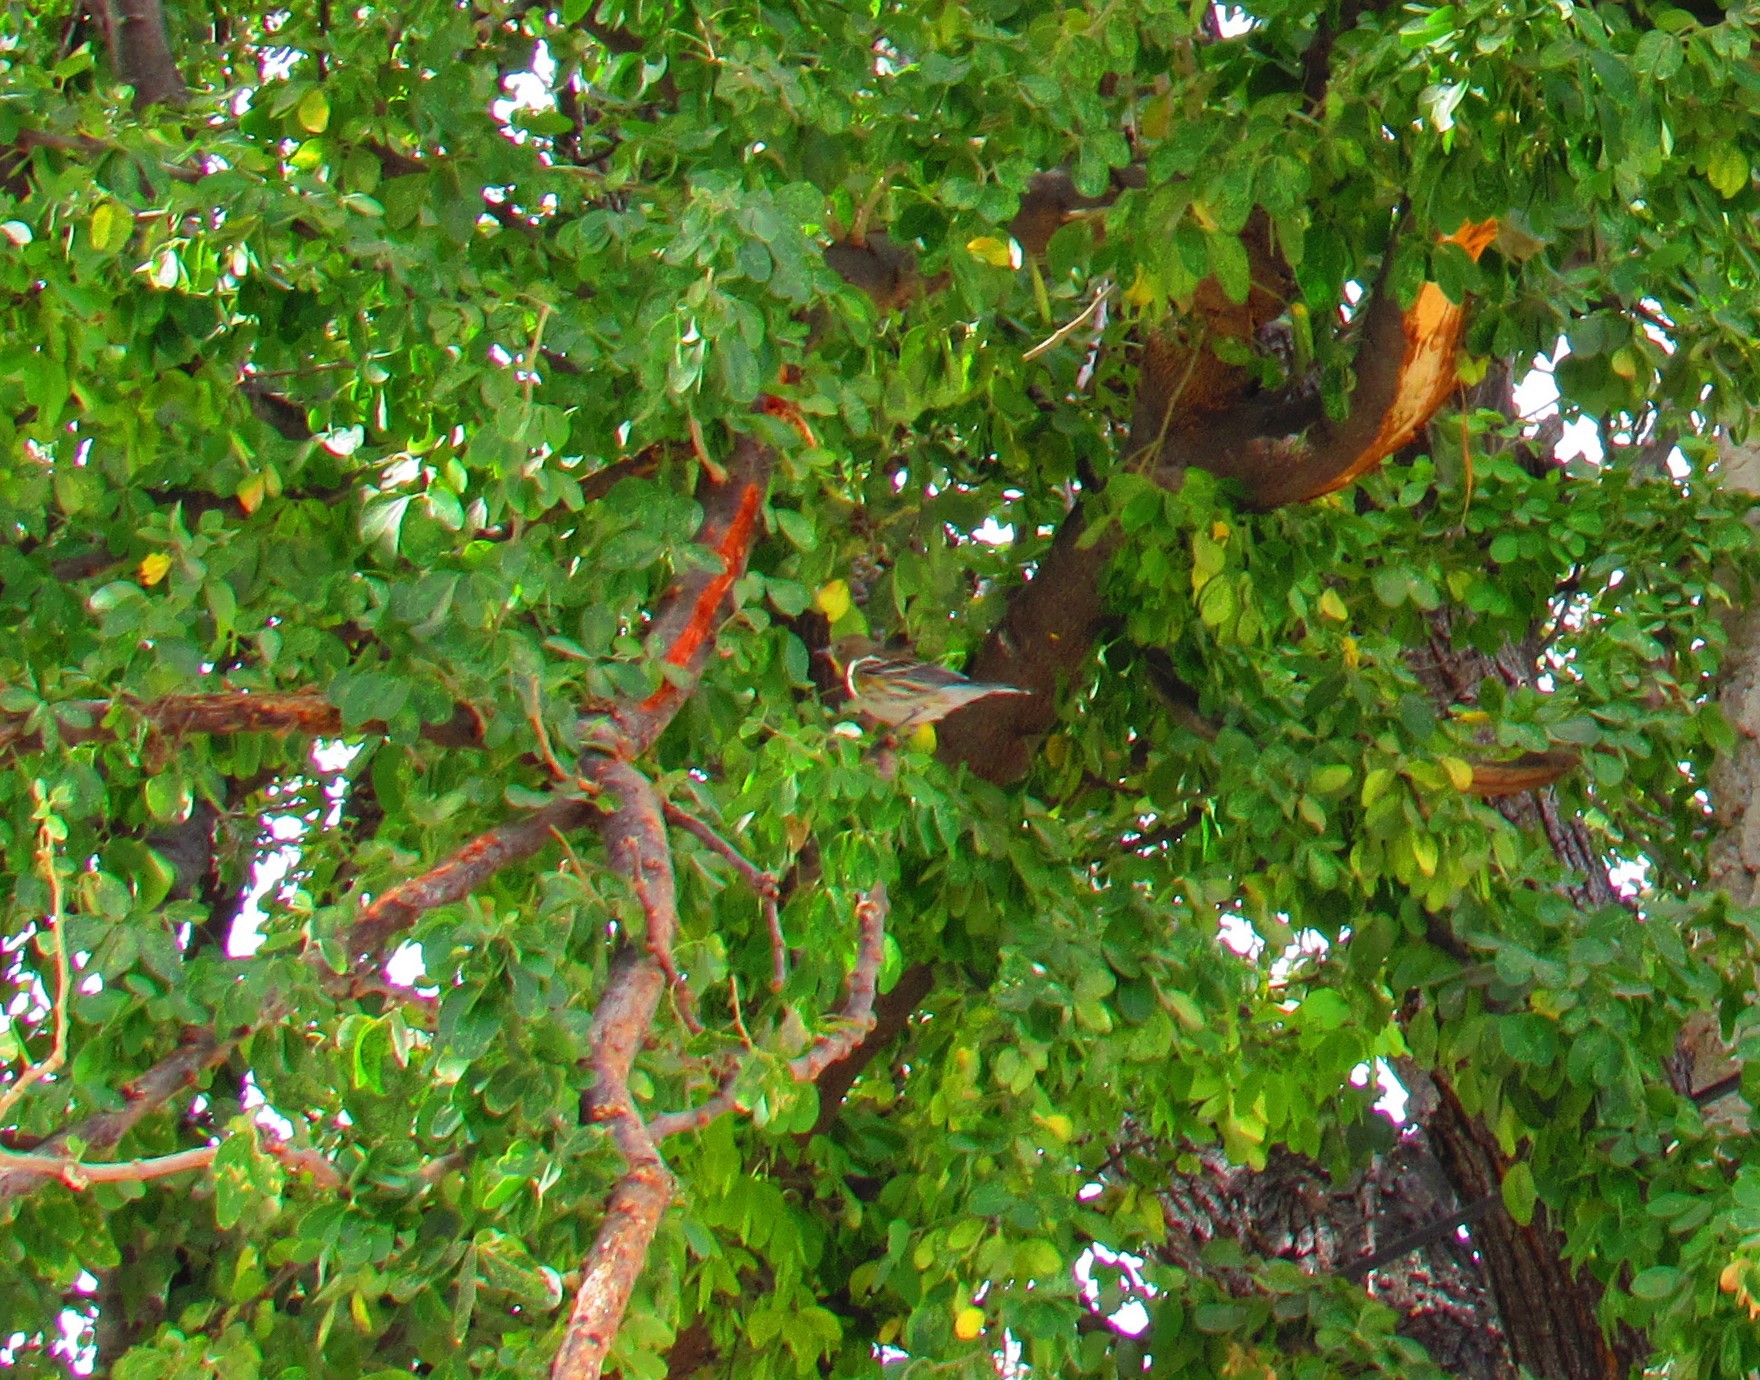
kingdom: Animalia
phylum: Chordata
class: Aves
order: Passeriformes
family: Parulidae
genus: Setophaga
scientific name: Setophaga coronata
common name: Myrtle warbler
